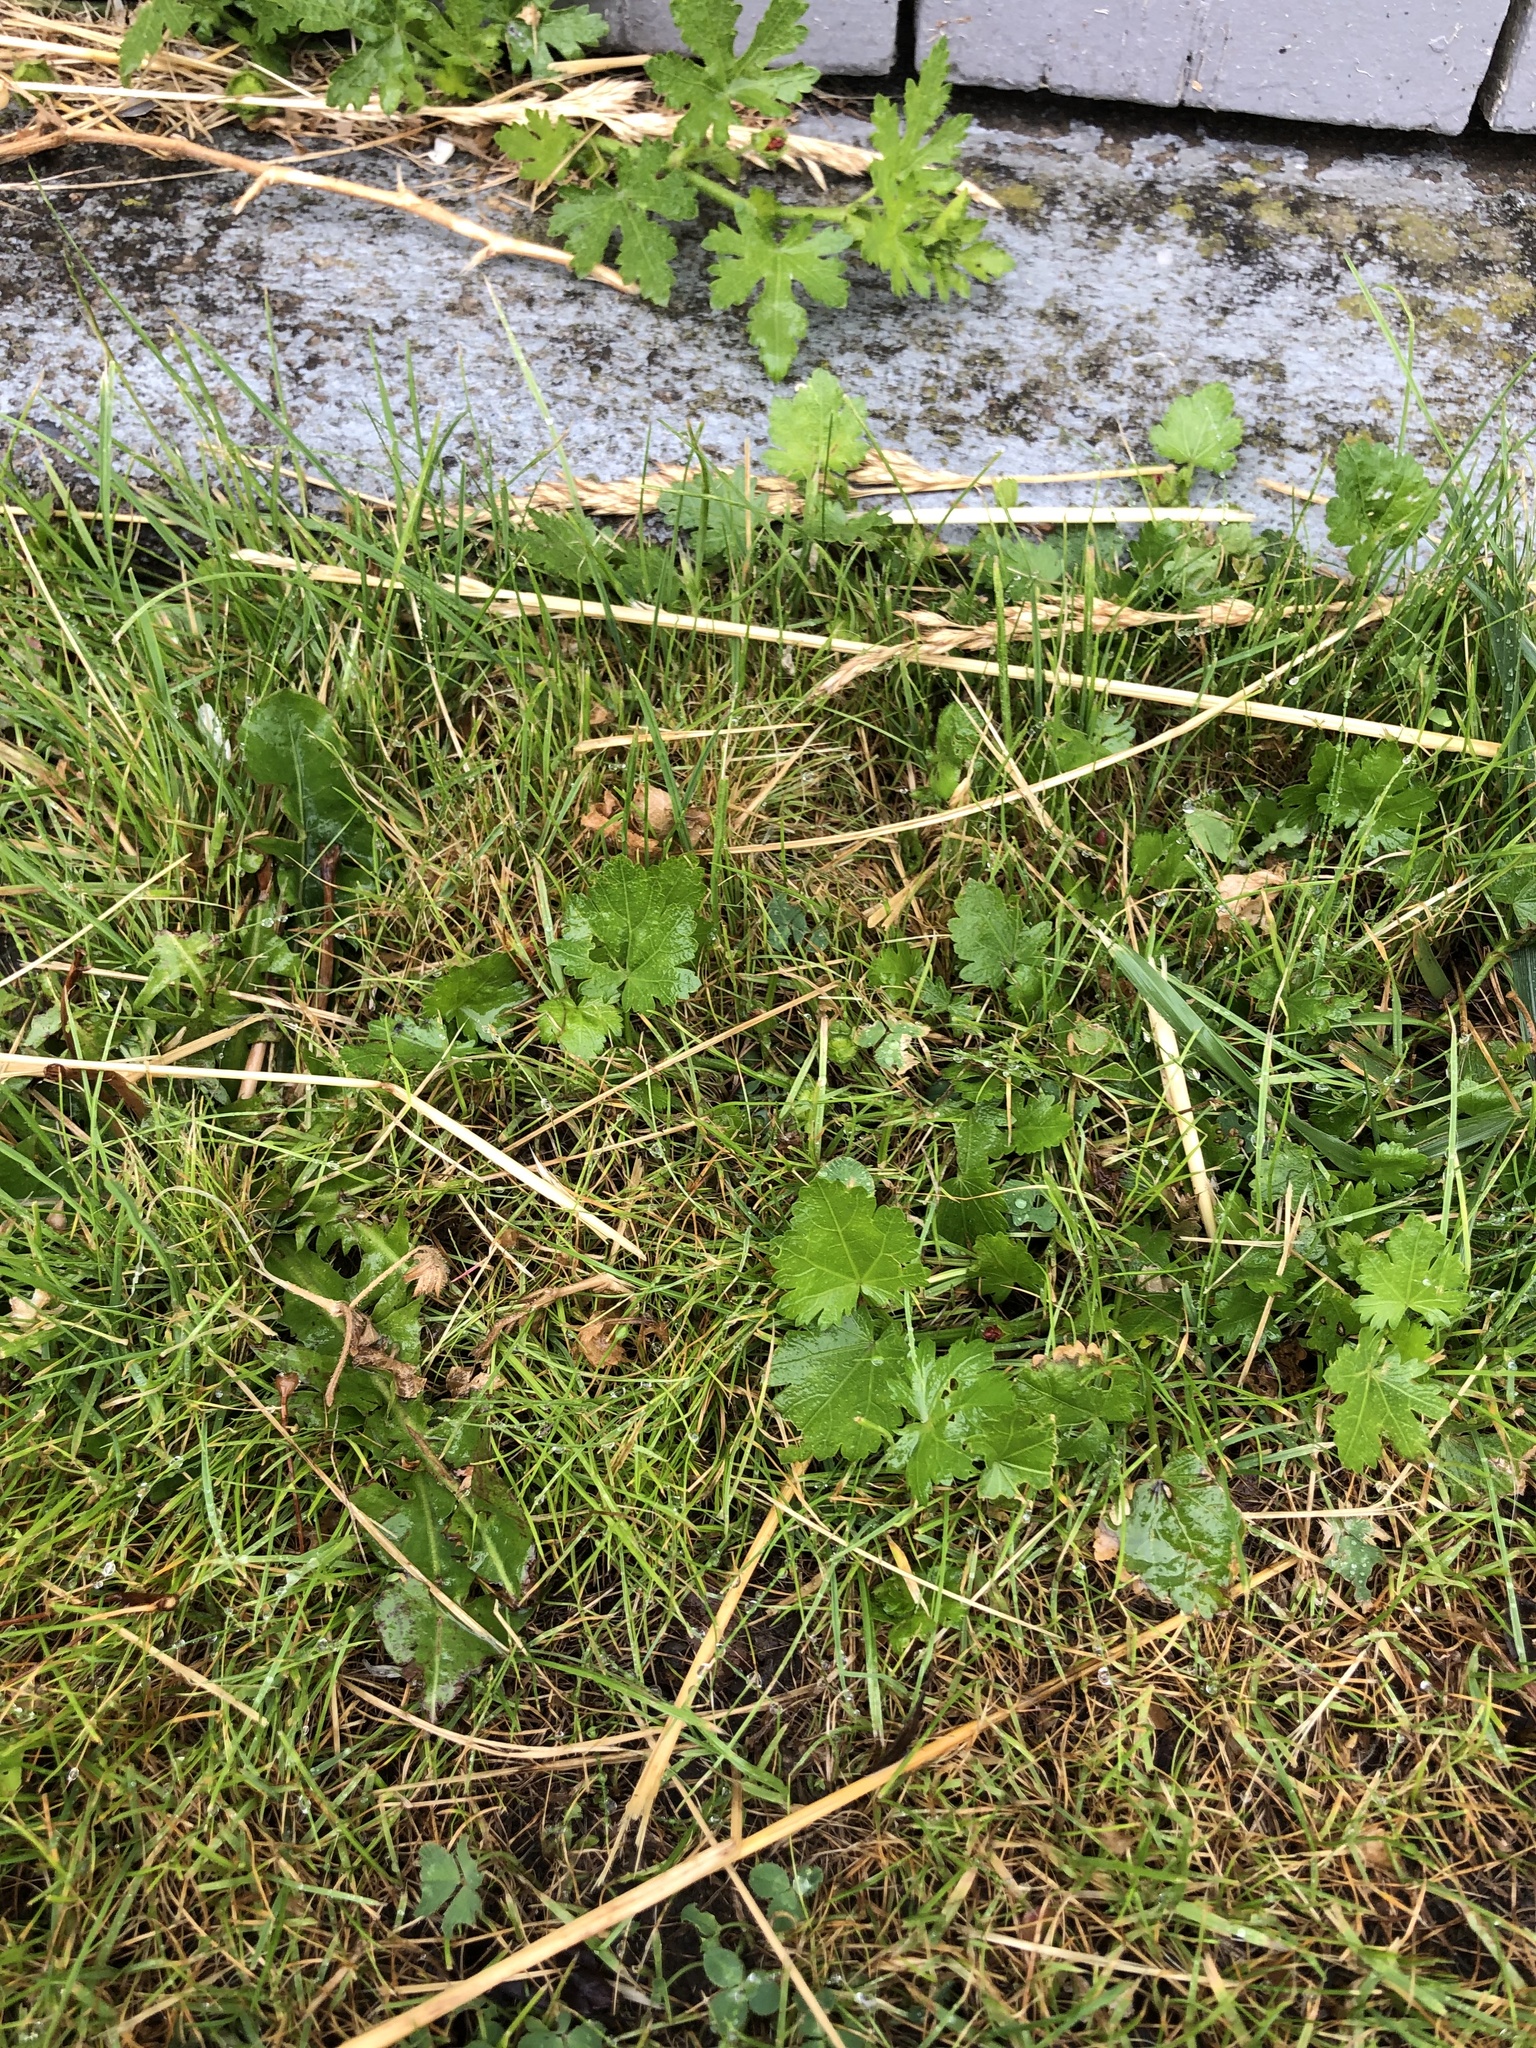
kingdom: Plantae
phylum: Tracheophyta
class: Magnoliopsida
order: Malvales
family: Malvaceae
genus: Modiola
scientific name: Modiola caroliniana
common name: Carolina bristlemallow
